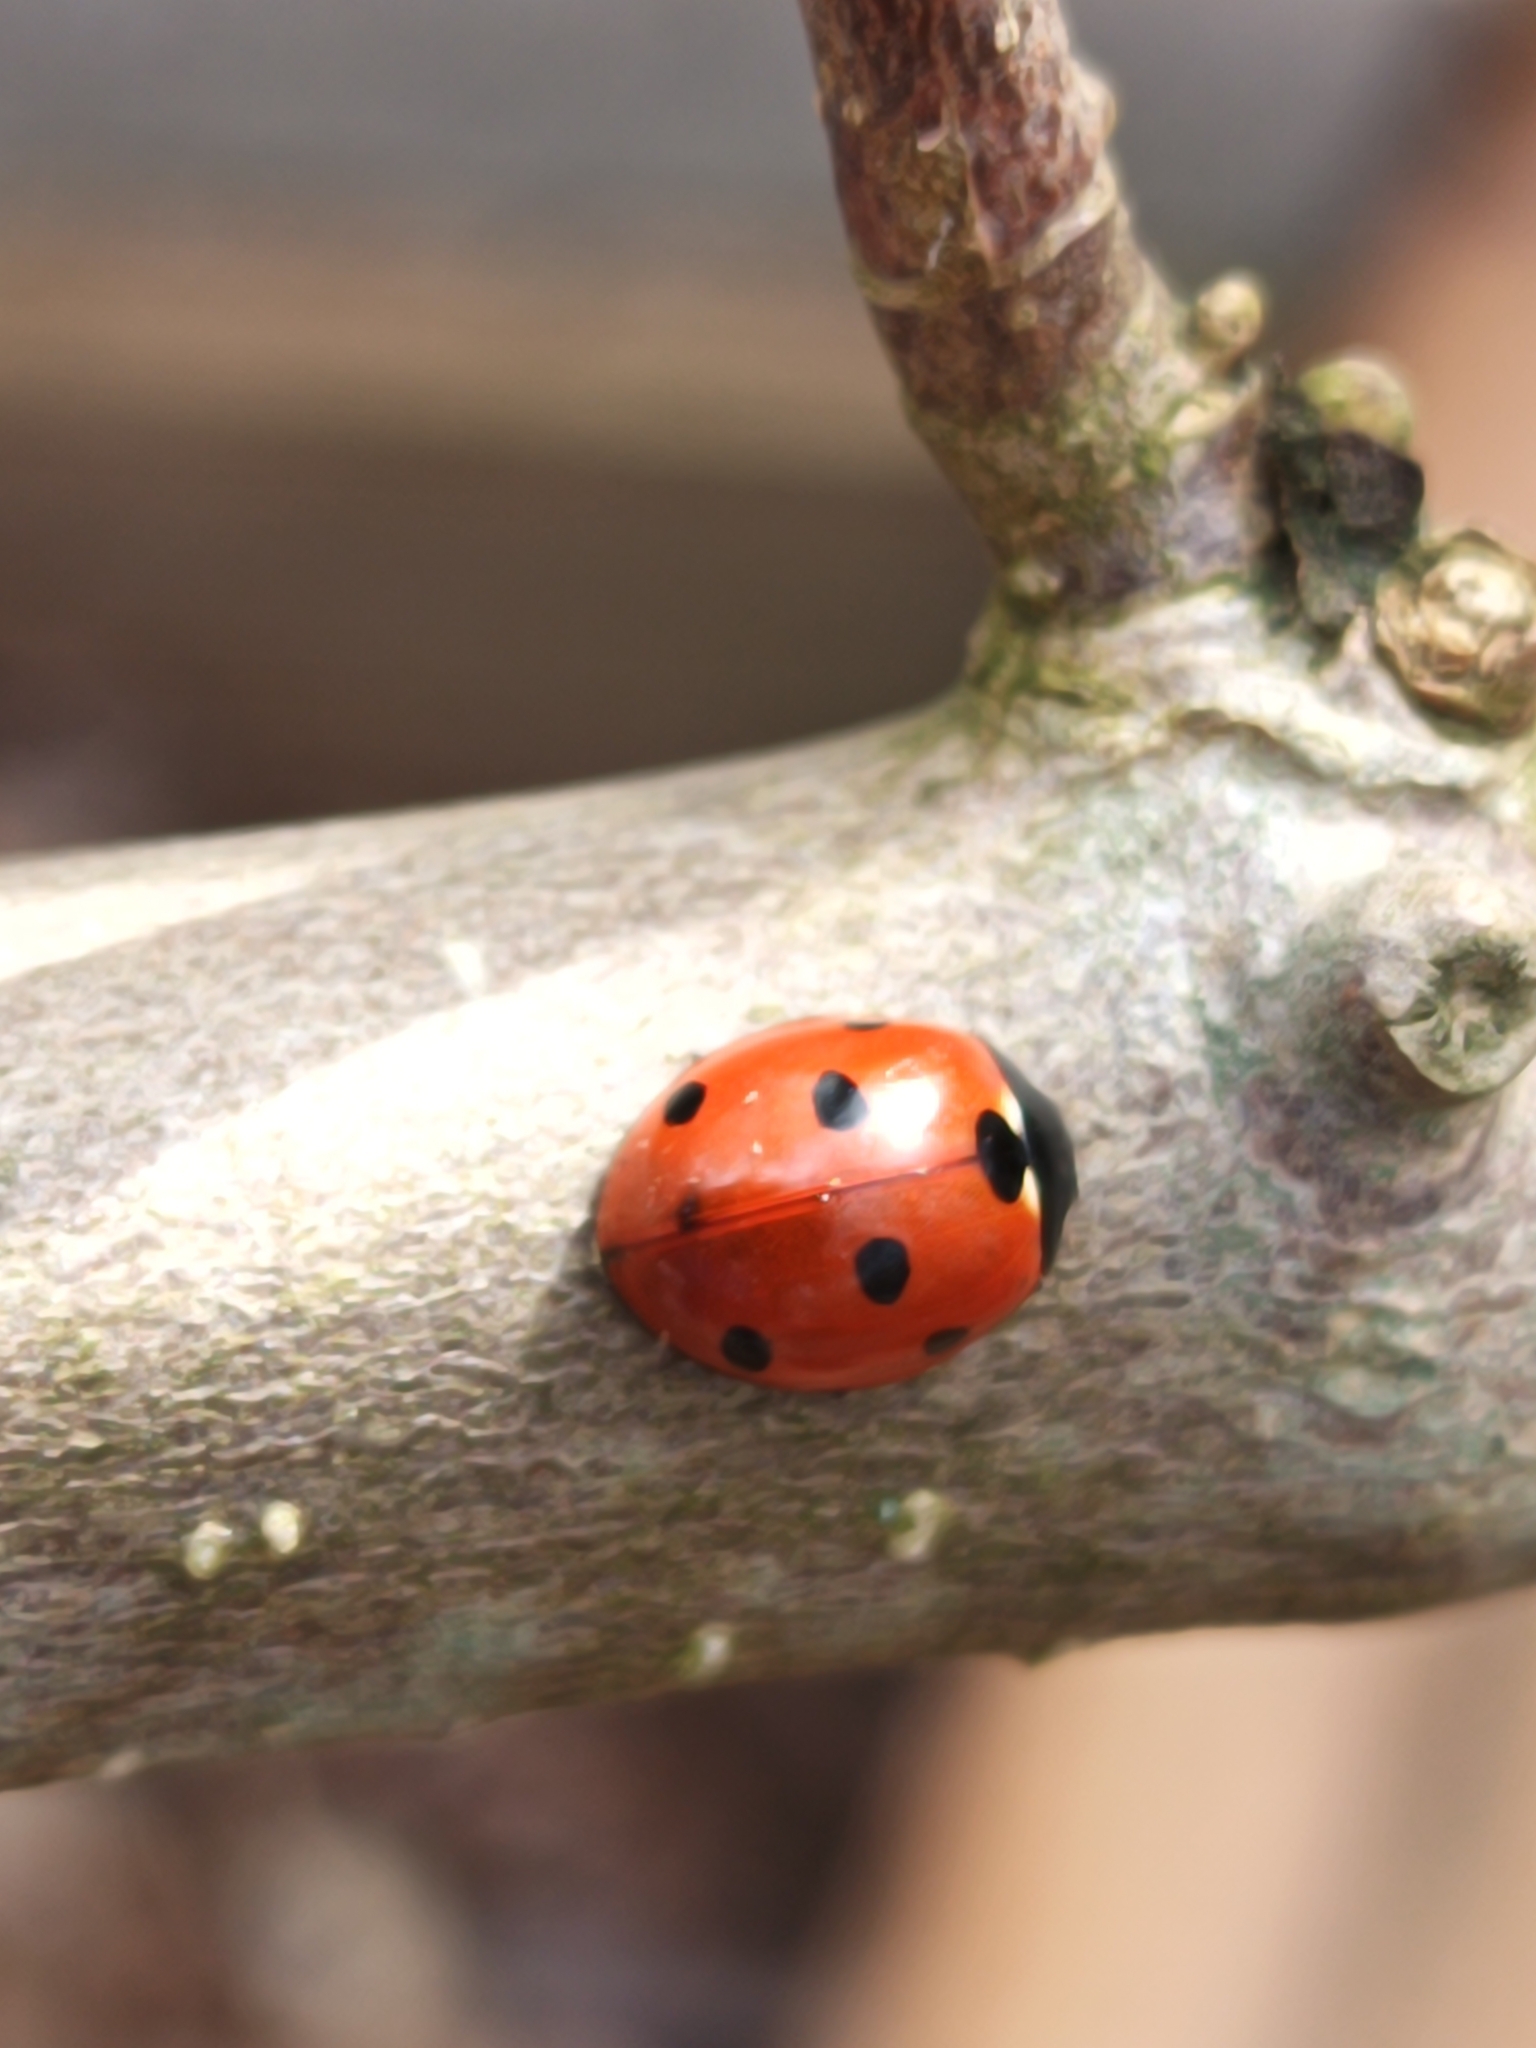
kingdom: Animalia
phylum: Arthropoda
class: Insecta
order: Coleoptera
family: Coccinellidae
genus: Coccinella
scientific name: Coccinella septempunctata
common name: Sevenspotted lady beetle
